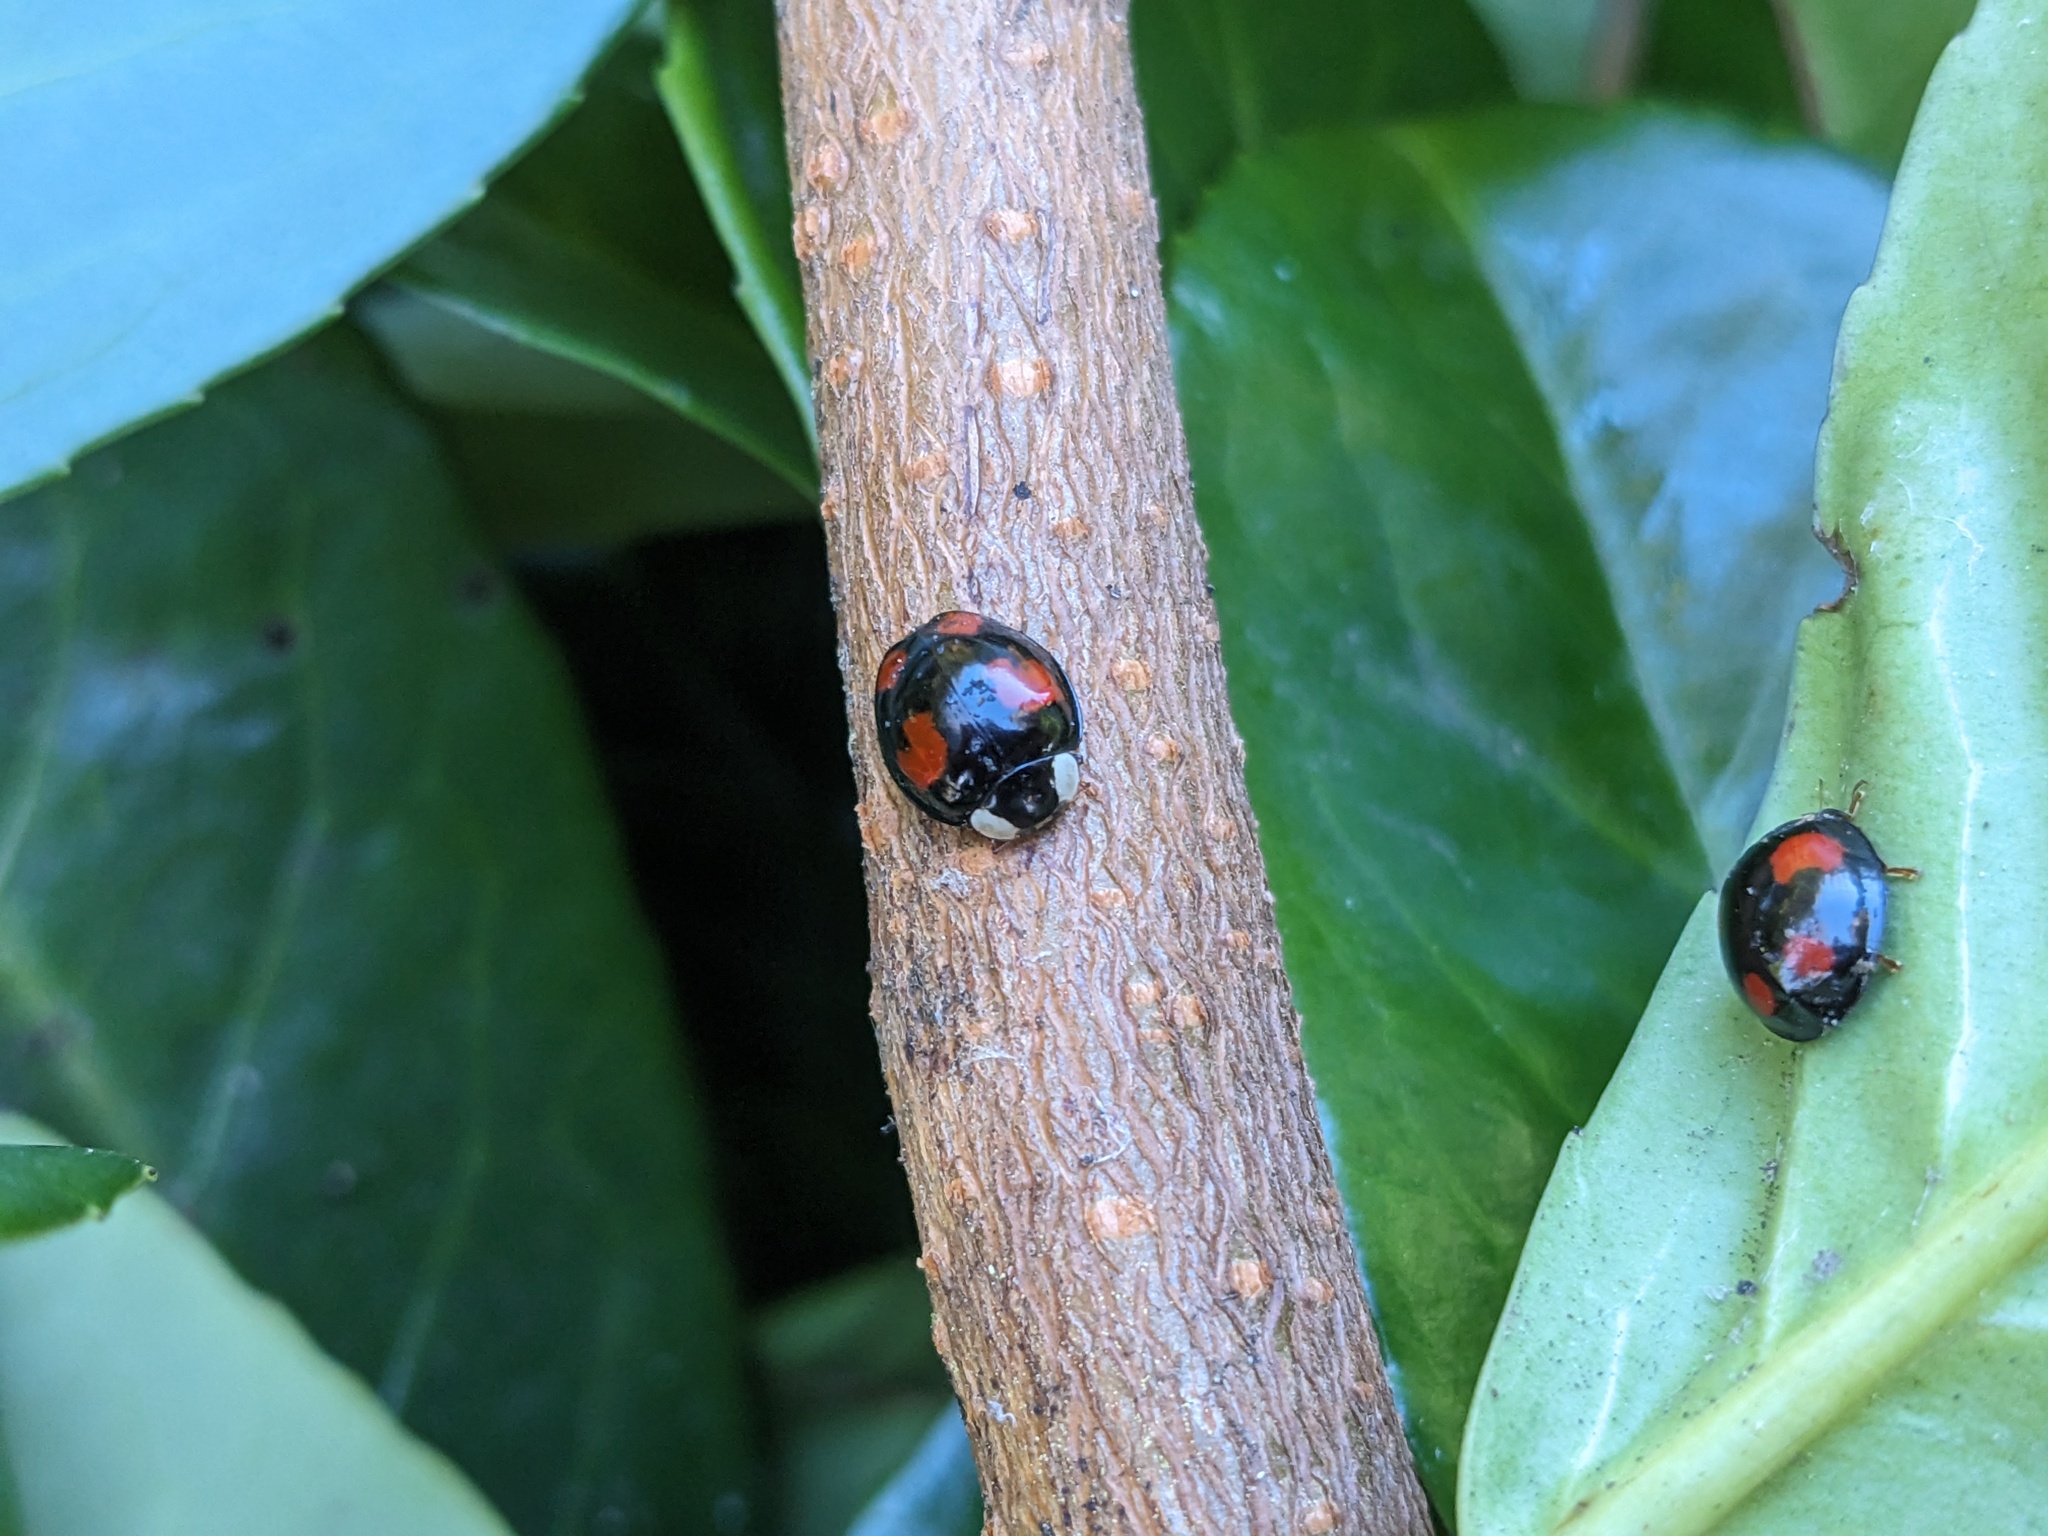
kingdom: Animalia
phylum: Arthropoda
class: Insecta
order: Coleoptera
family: Coccinellidae
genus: Harmonia
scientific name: Harmonia axyridis
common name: Harlequin ladybird
